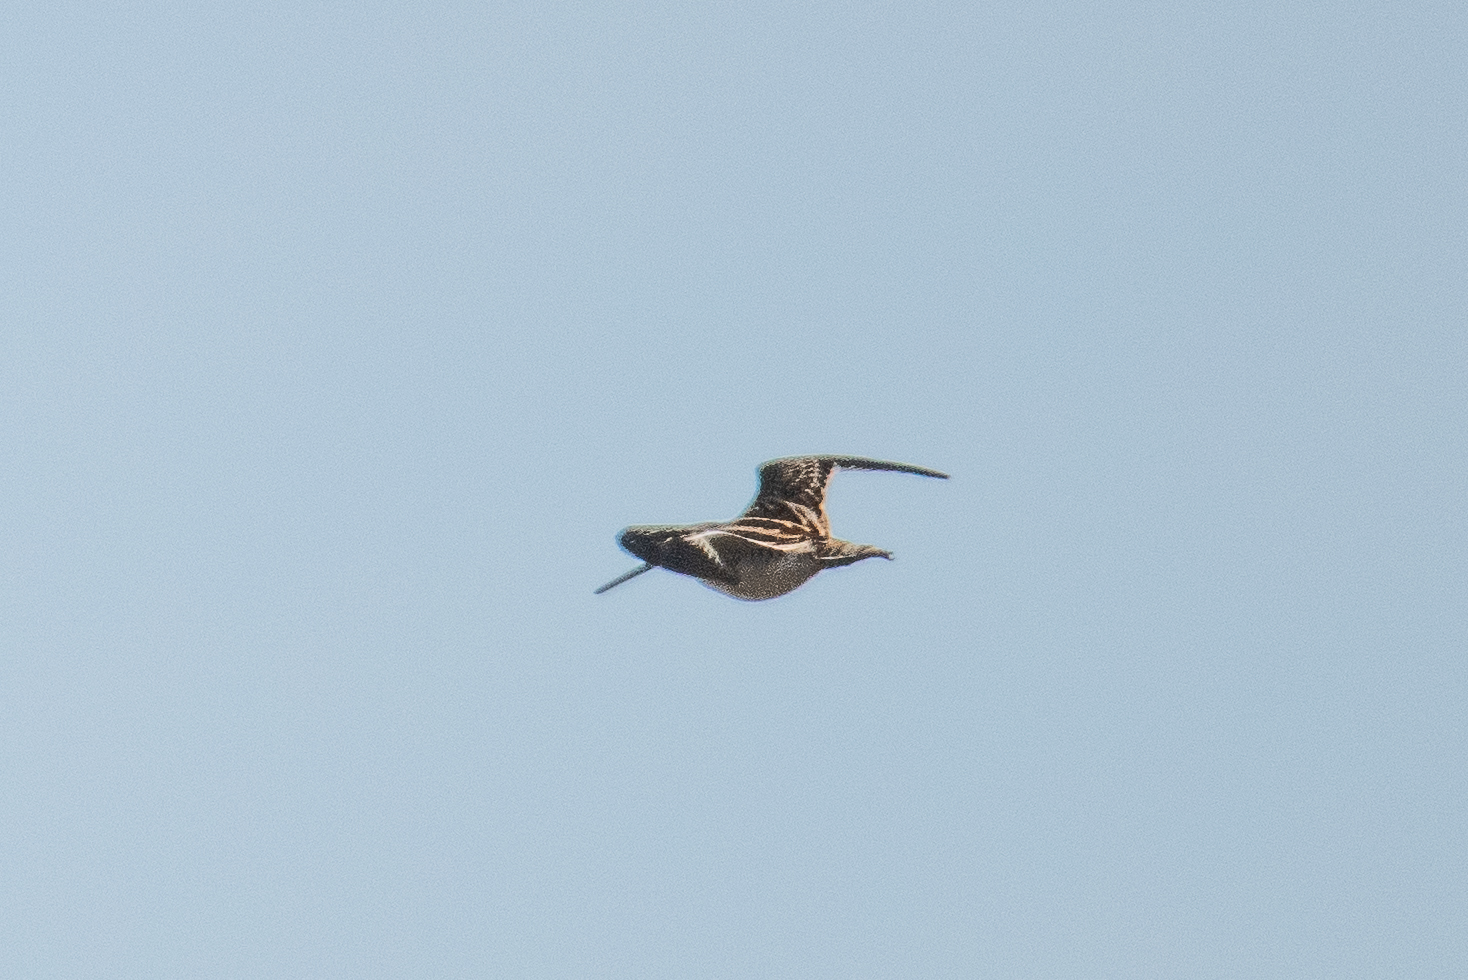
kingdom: Animalia
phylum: Chordata
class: Aves
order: Charadriiformes
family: Scolopacidae
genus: Gallinago
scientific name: Gallinago gallinago
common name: Common snipe
